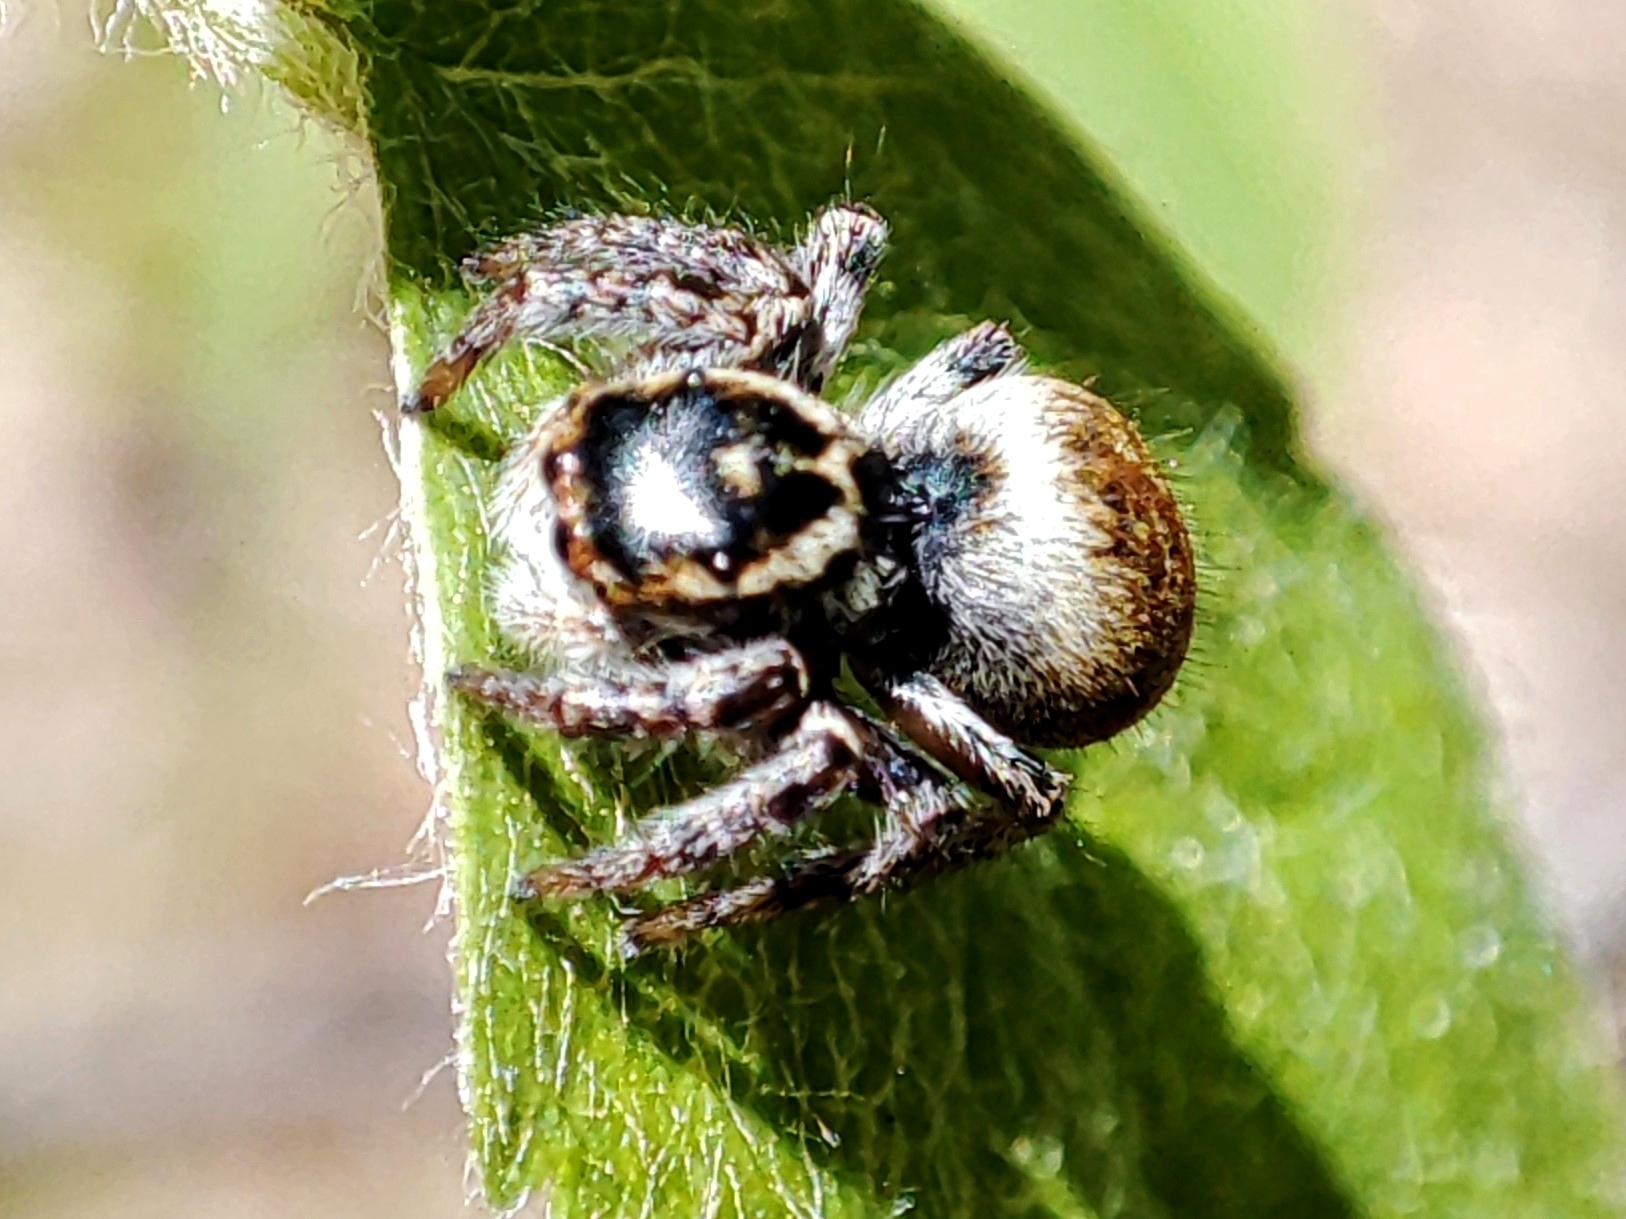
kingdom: Animalia
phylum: Arthropoda
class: Arachnida
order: Araneae
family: Salticidae
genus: Carrhotus
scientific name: Carrhotus xanthogramma
